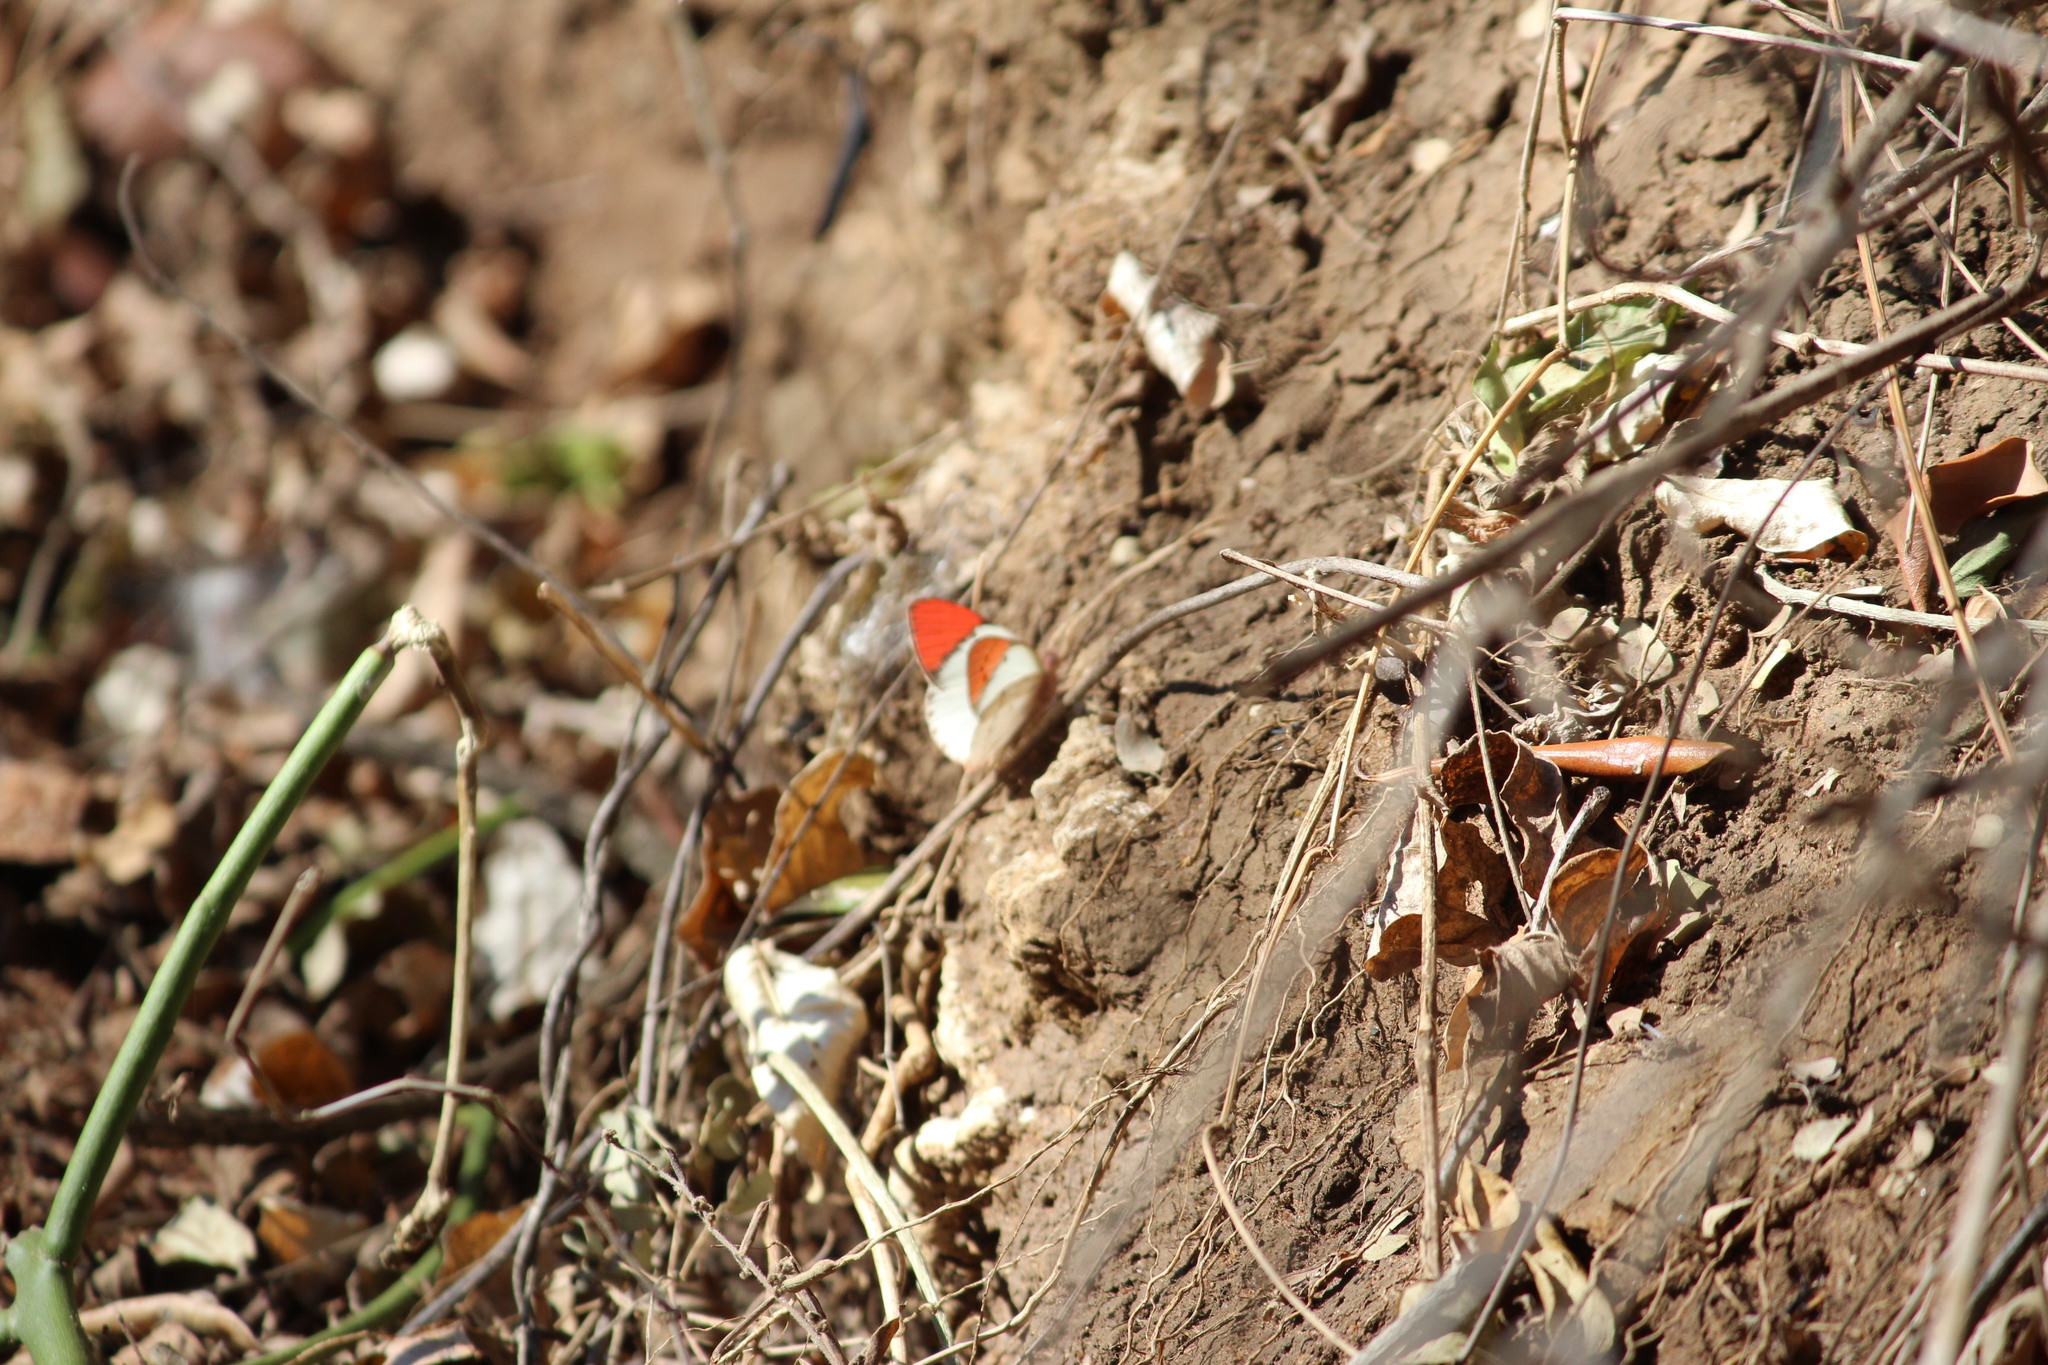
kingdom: Animalia
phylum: Arthropoda
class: Insecta
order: Lepidoptera
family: Pieridae
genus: Colotis
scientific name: Colotis annae
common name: Scarlet tip
